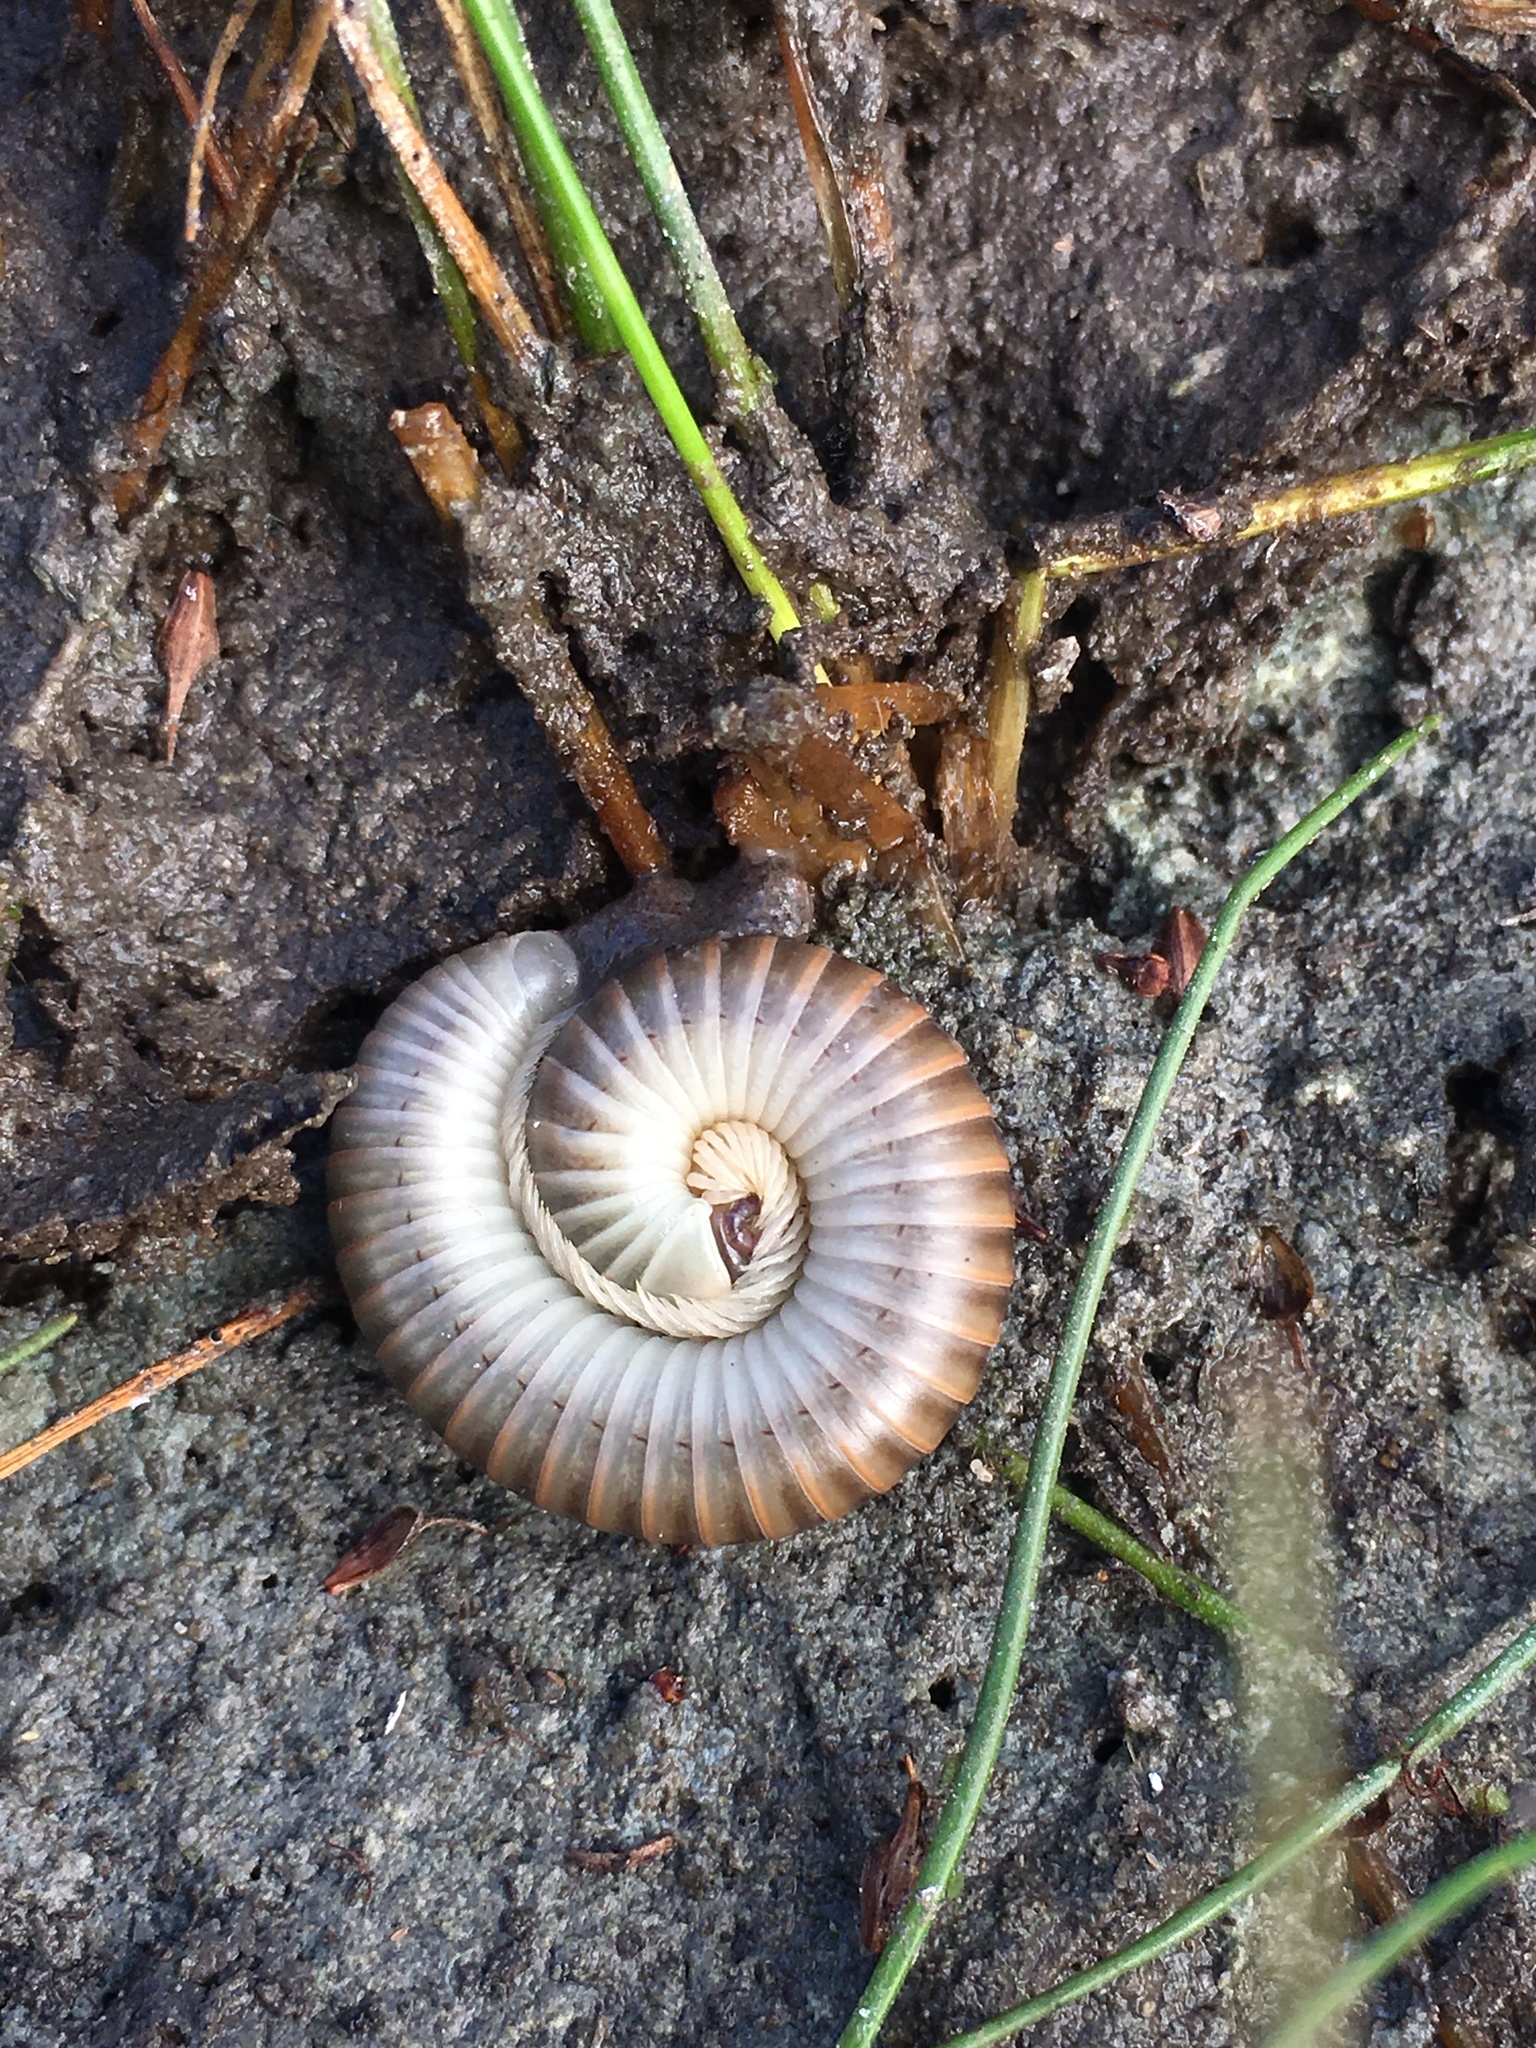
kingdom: Animalia
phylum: Arthropoda
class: Diplopoda
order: Spirobolida
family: Spirobolidae
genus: Chicobolus
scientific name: Chicobolus spinigerus
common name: Florida ivory millipede
